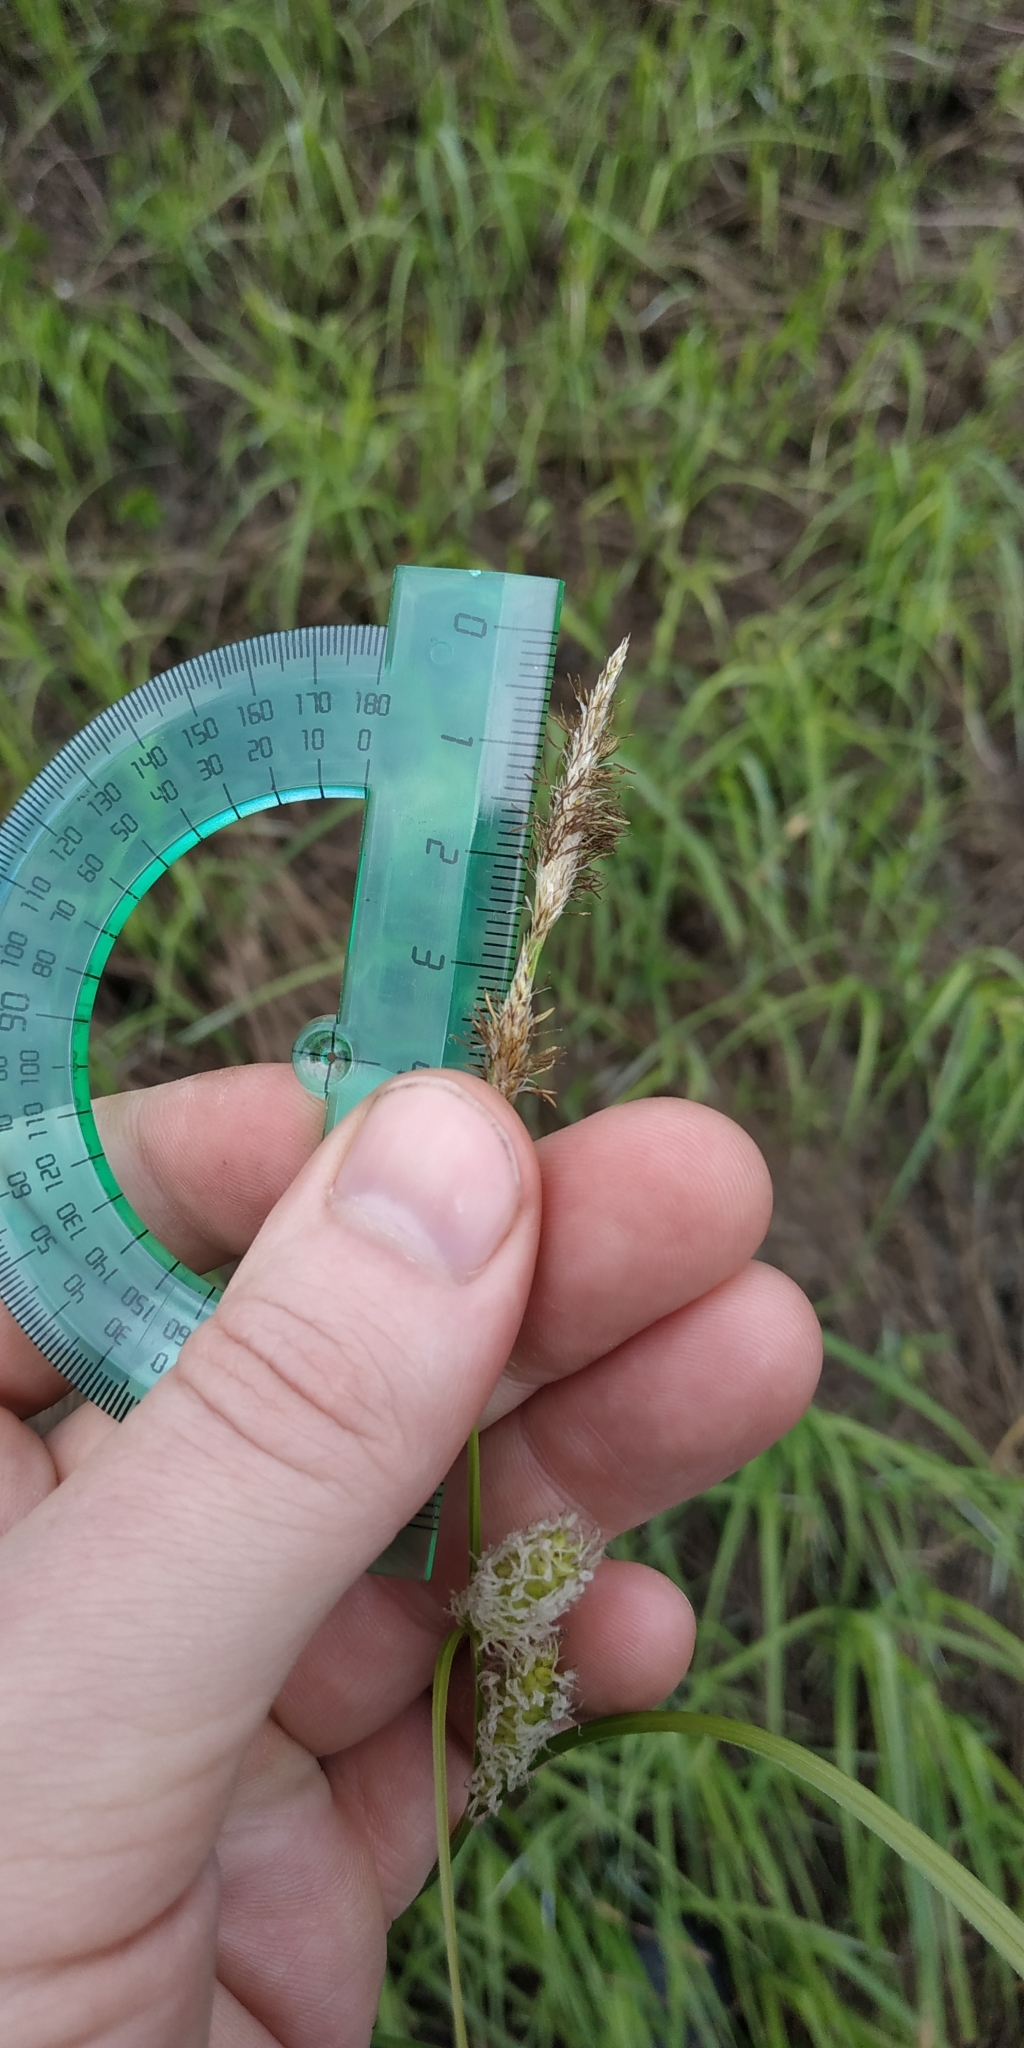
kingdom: Plantae
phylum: Tracheophyta
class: Liliopsida
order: Poales
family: Cyperaceae
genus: Carex
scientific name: Carex utriculata
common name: Beaked sedge
